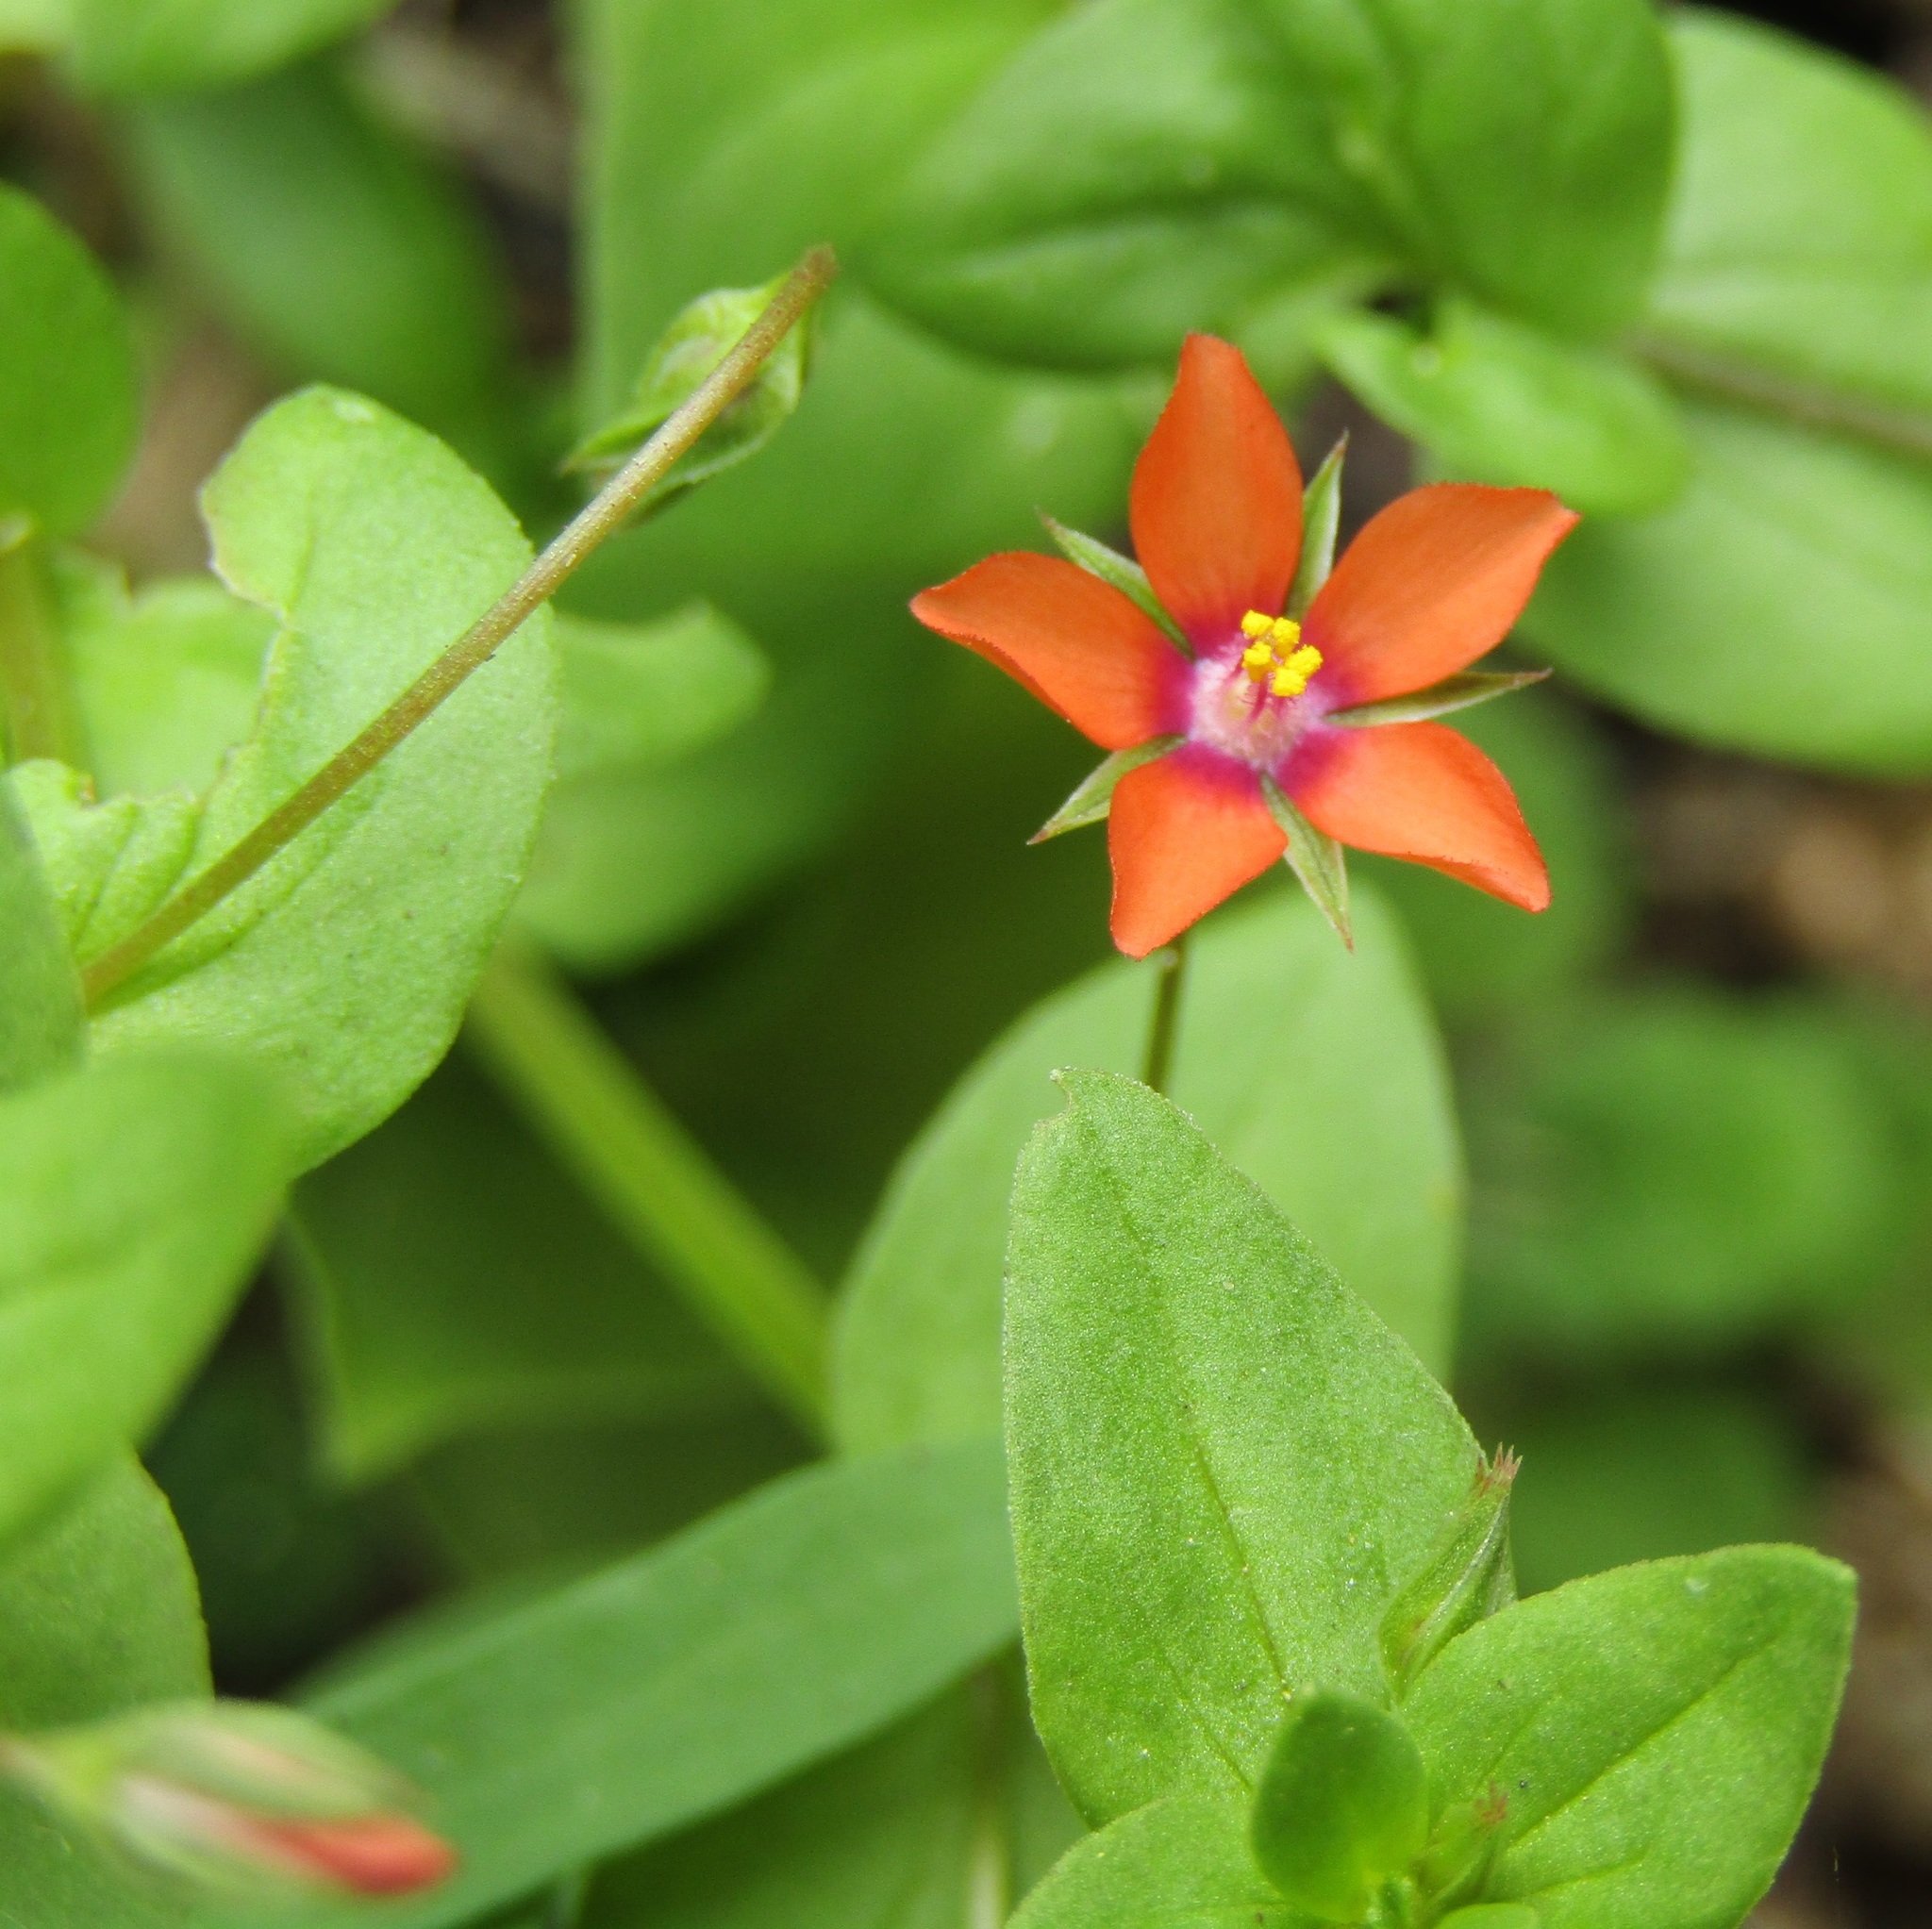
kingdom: Plantae
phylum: Tracheophyta
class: Magnoliopsida
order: Ericales
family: Primulaceae
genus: Lysimachia
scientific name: Lysimachia arvensis
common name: Scarlet pimpernel
